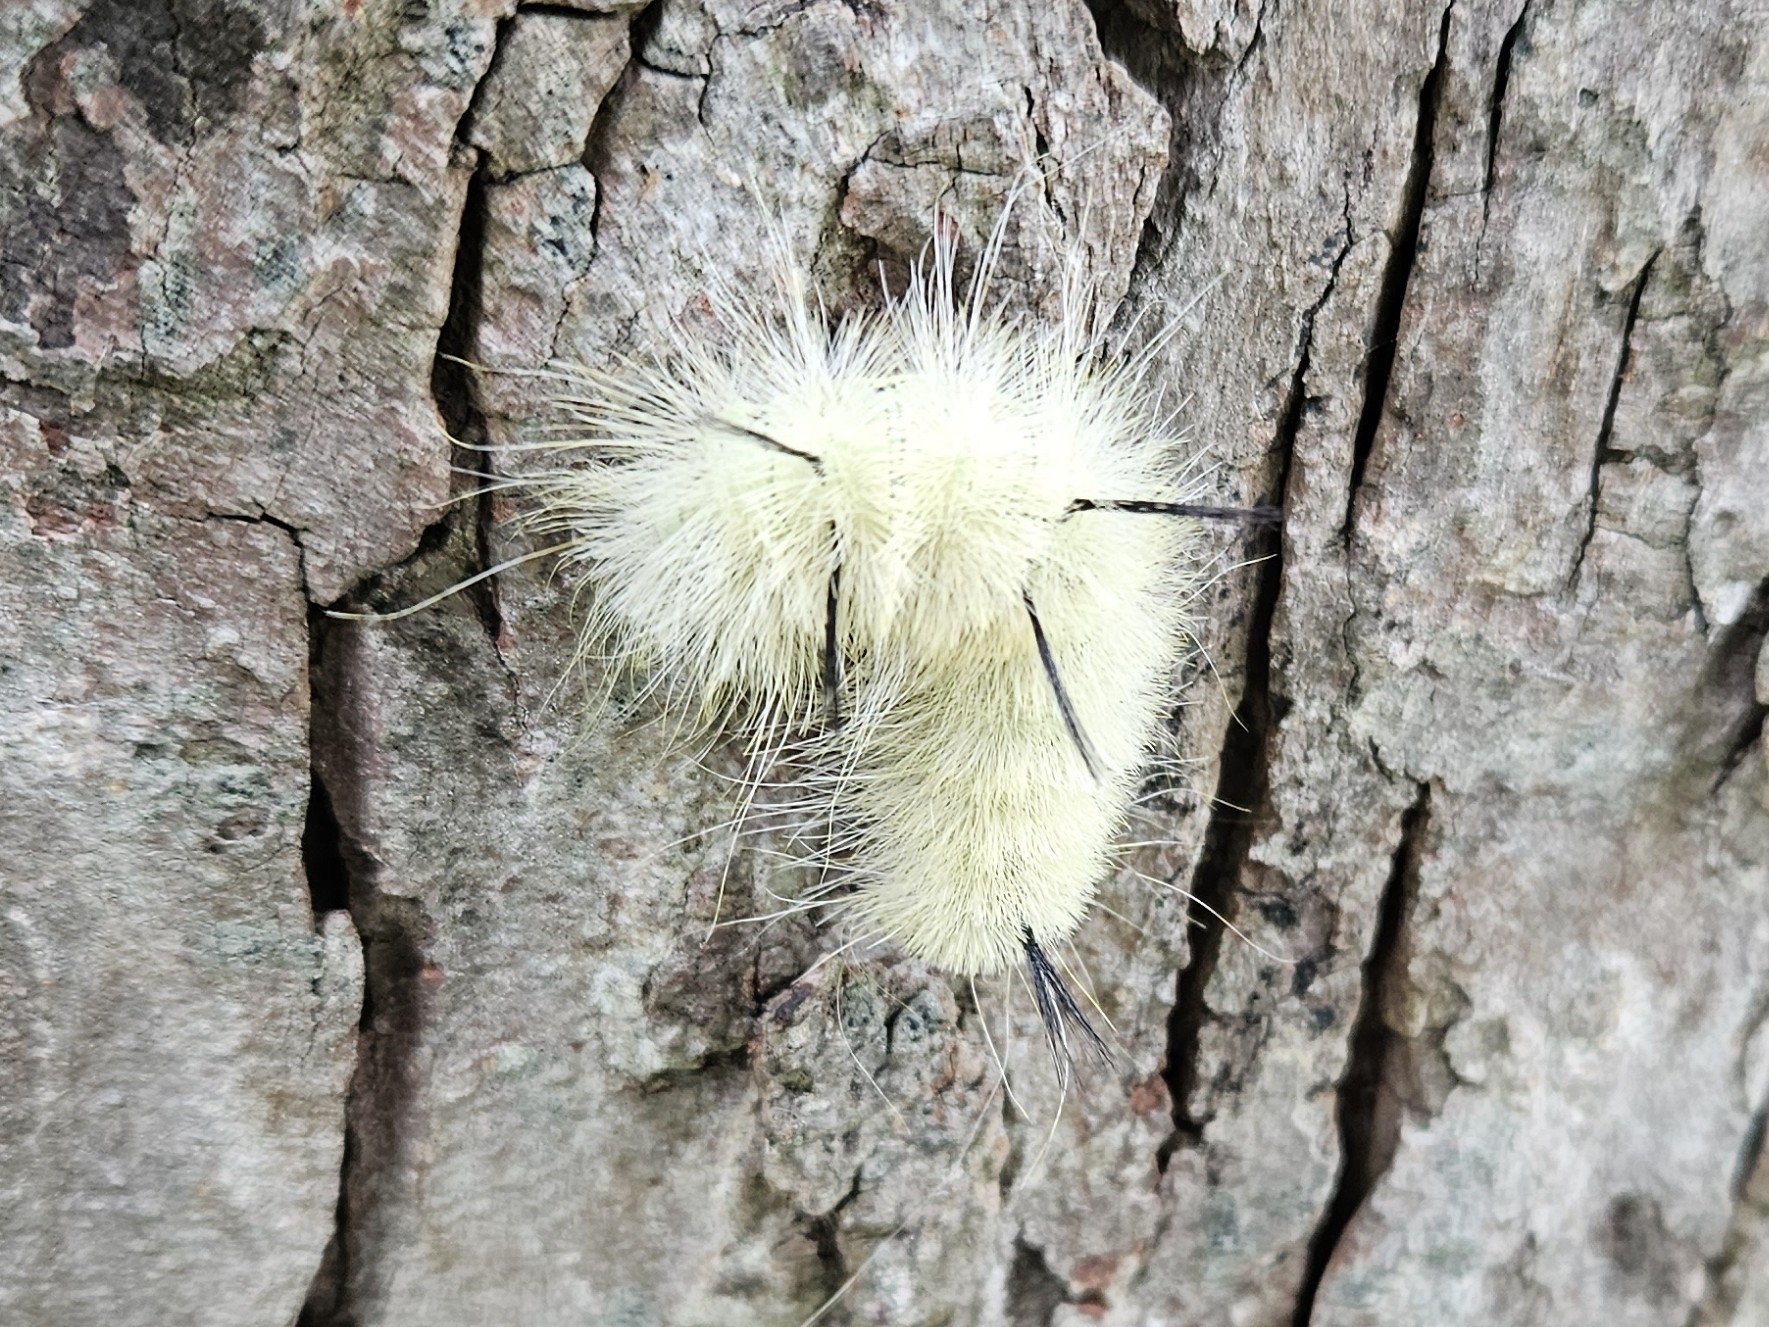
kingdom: Animalia
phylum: Arthropoda
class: Insecta
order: Lepidoptera
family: Noctuidae
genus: Acronicta
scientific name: Acronicta americana
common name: American dagger
